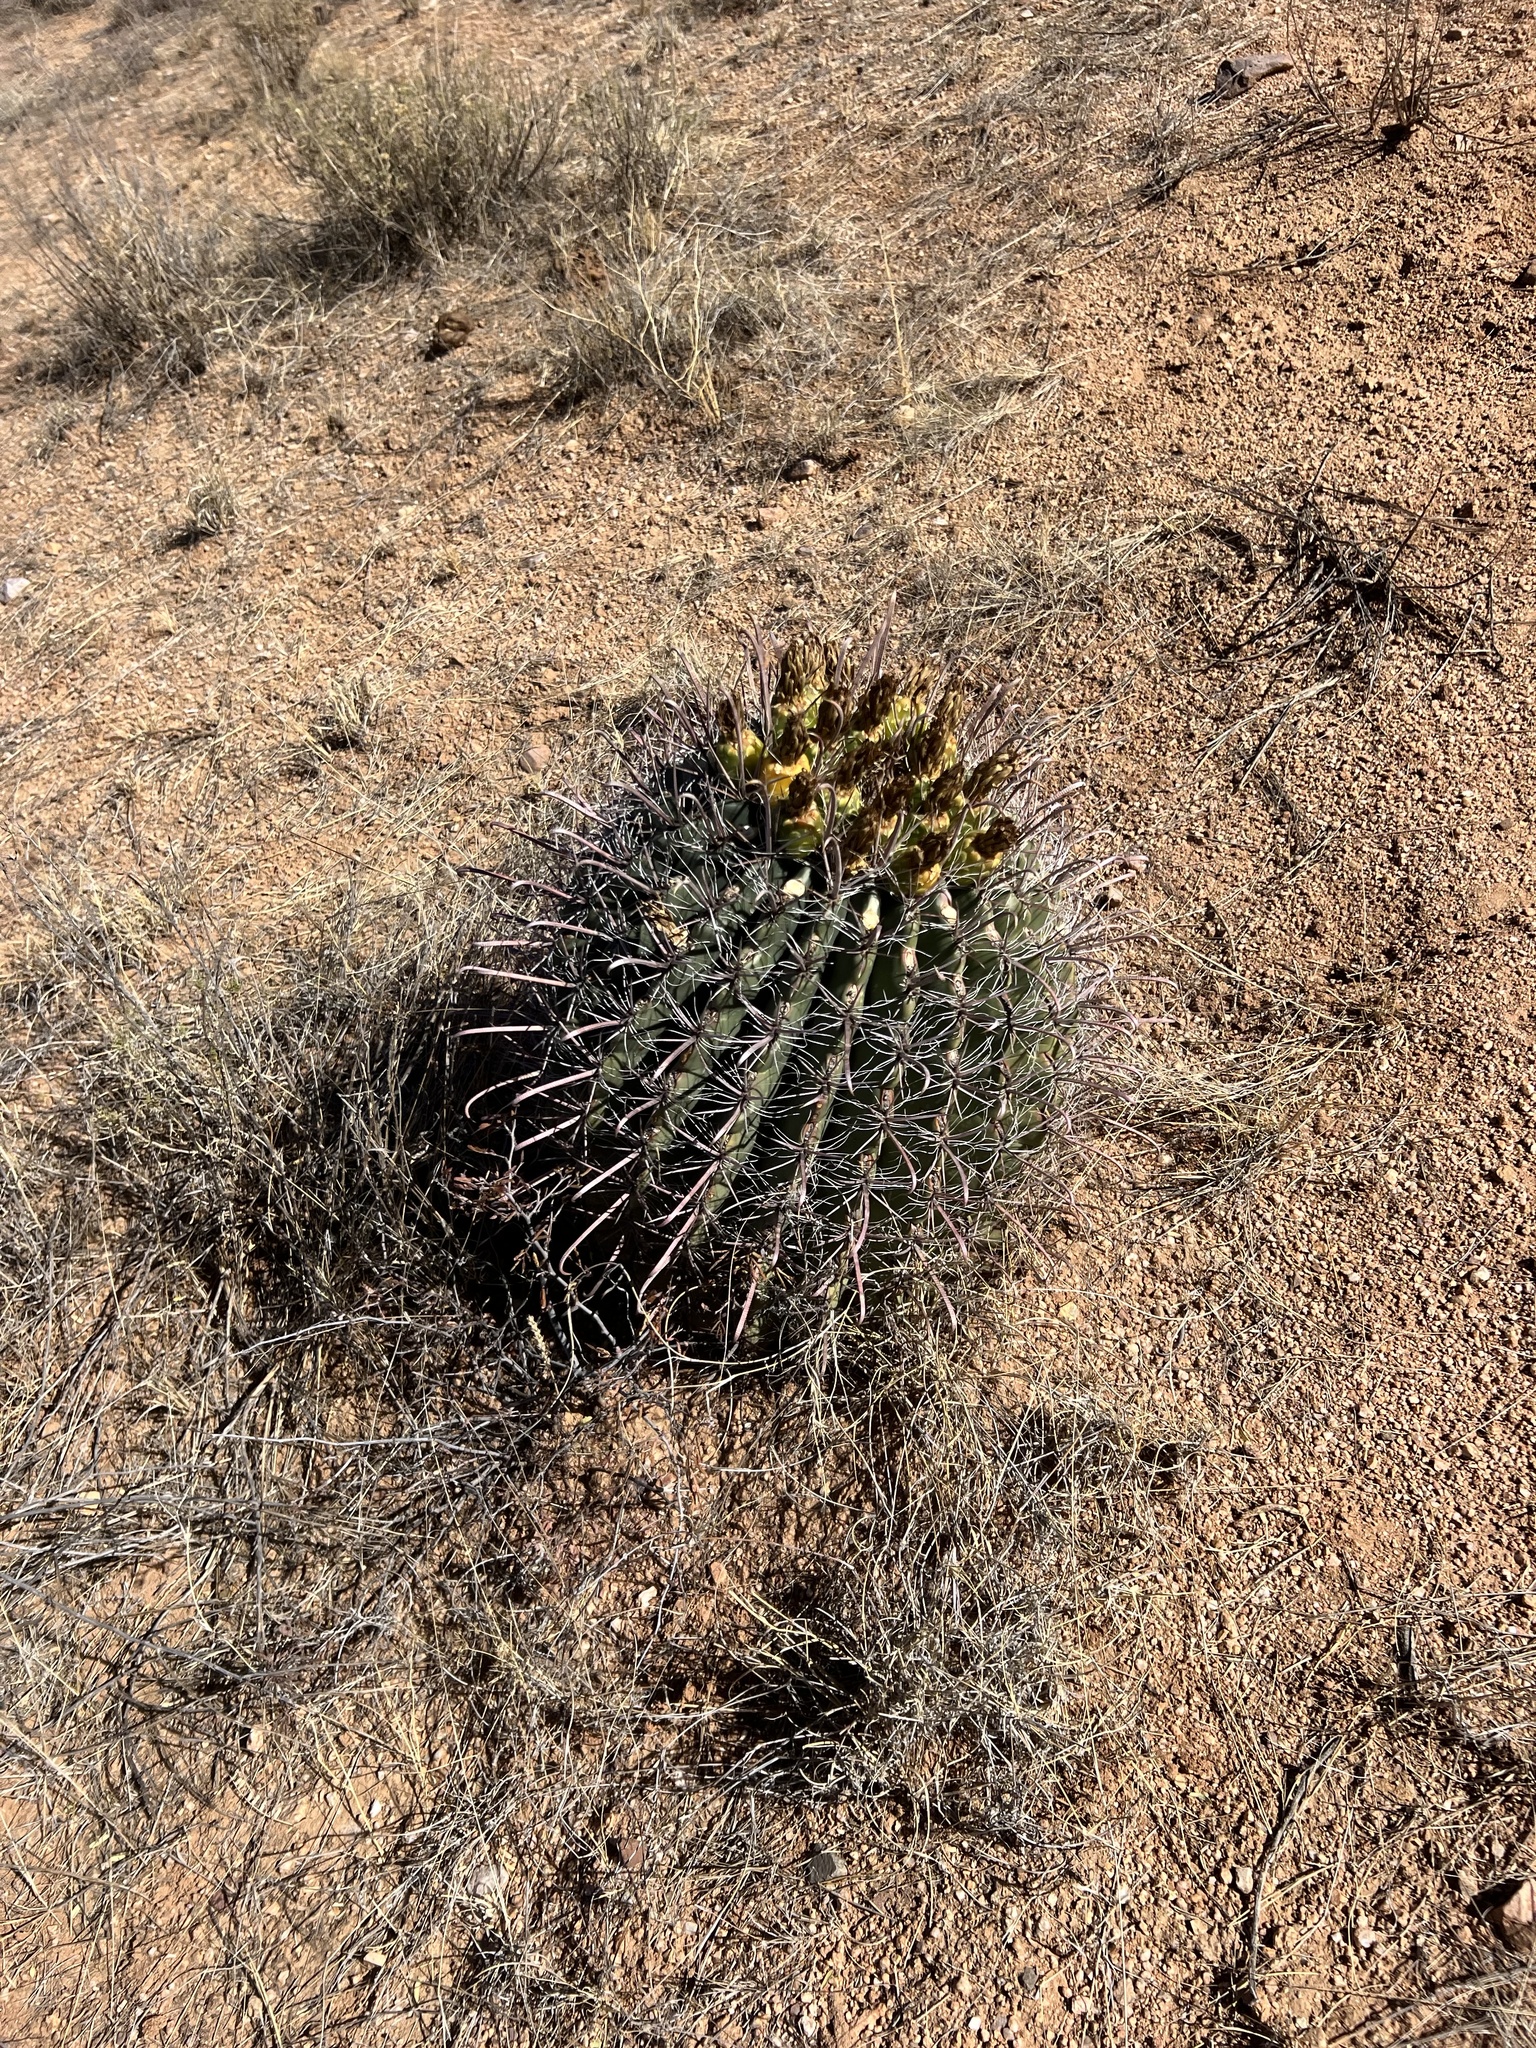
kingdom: Plantae
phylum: Tracheophyta
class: Magnoliopsida
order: Caryophyllales
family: Cactaceae
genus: Ferocactus
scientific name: Ferocactus wislizeni
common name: Candy barrel cactus
